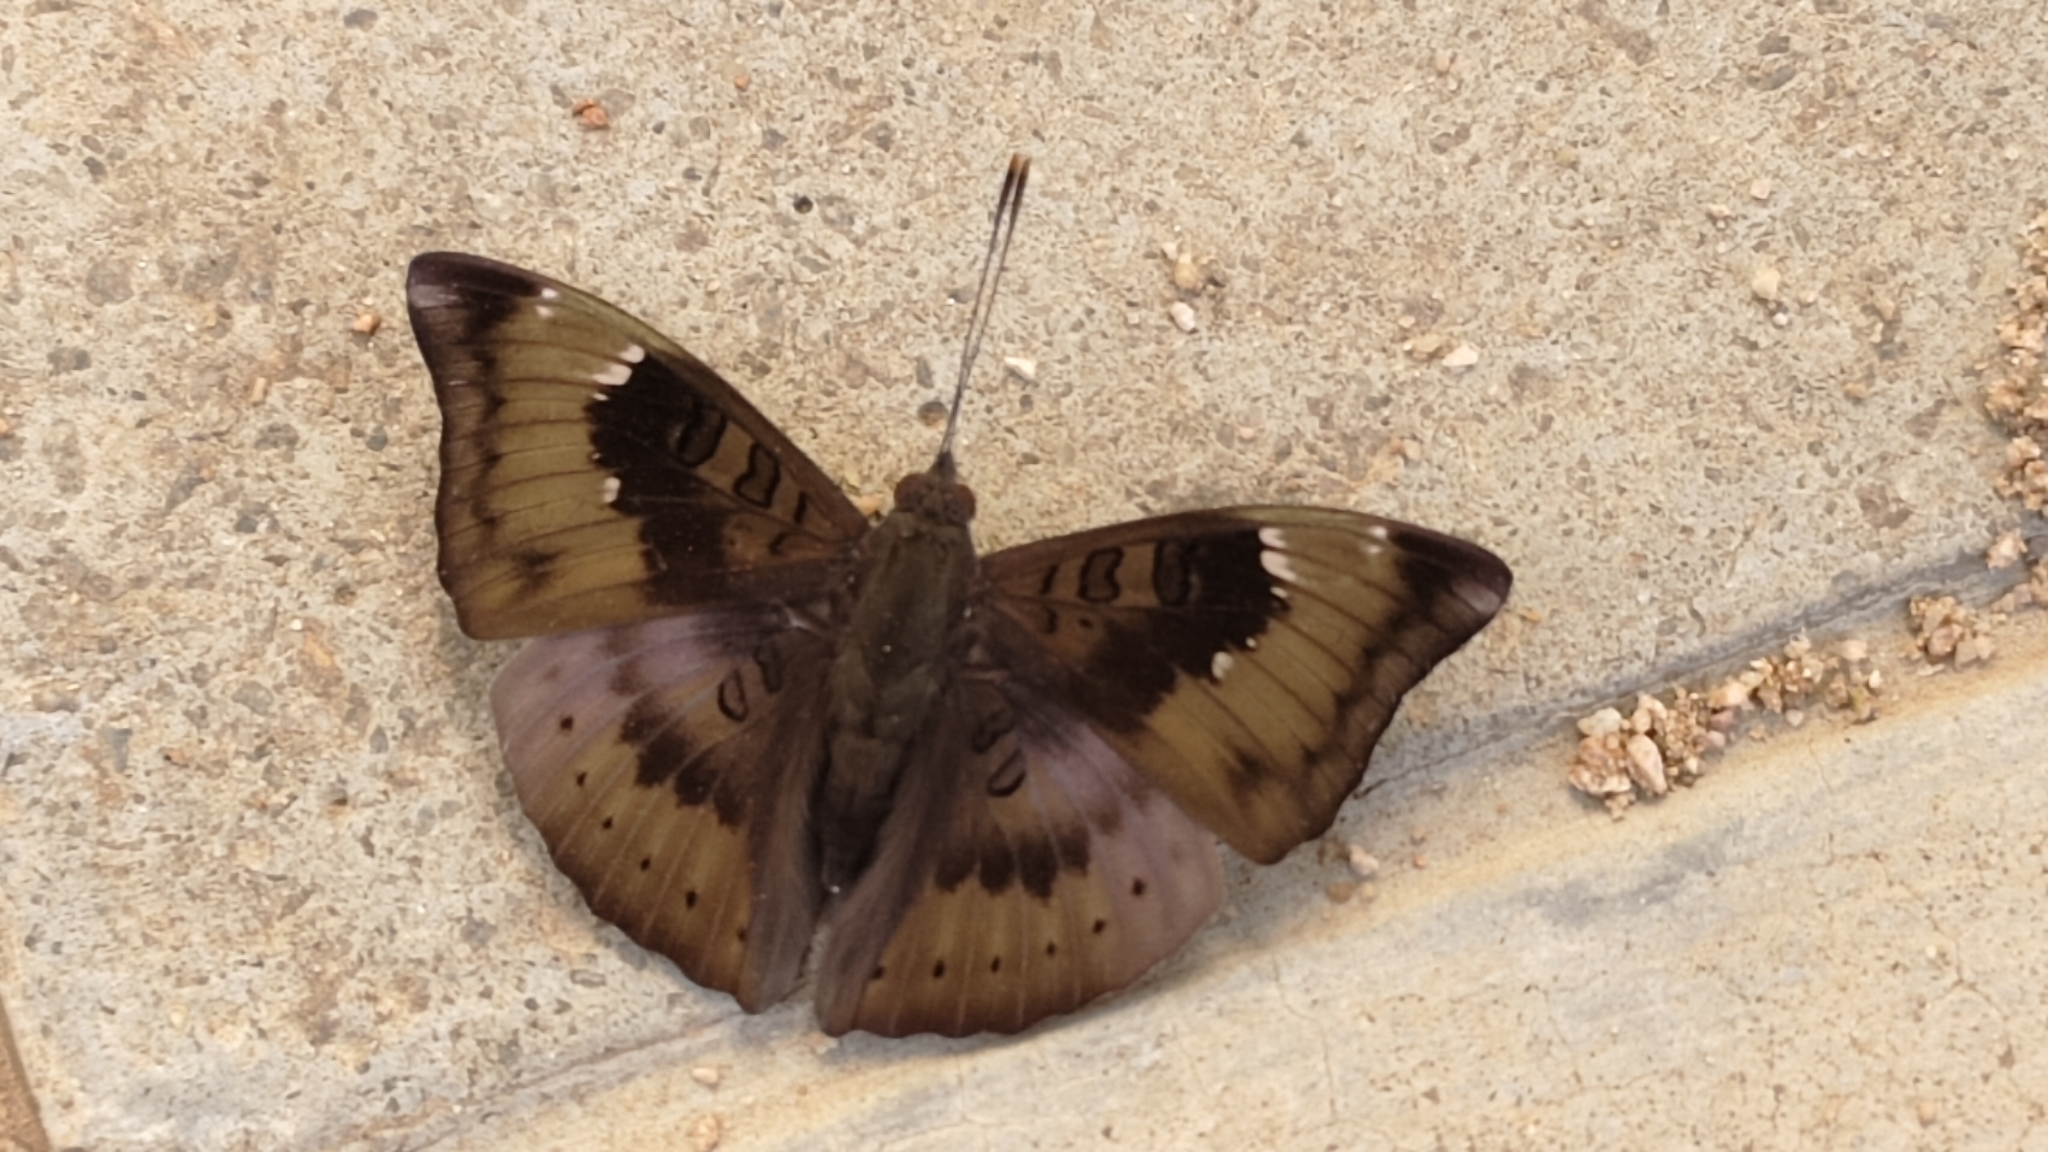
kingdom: Animalia
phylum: Arthropoda
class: Insecta
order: Lepidoptera
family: Nymphalidae
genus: Euthalia
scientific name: Euthalia aconthea
